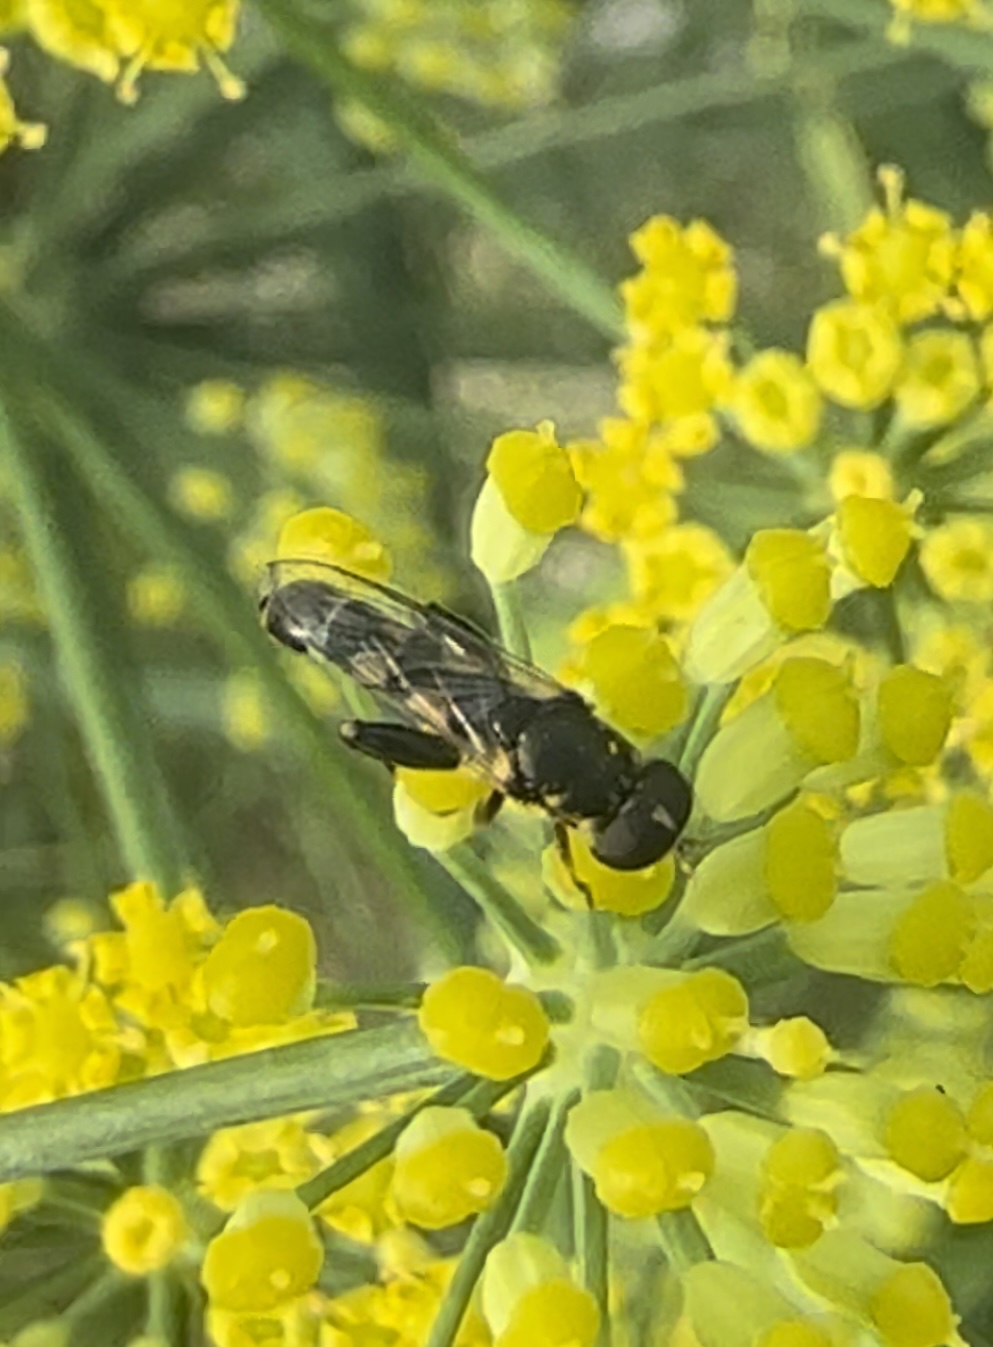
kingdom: Animalia
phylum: Arthropoda
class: Insecta
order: Diptera
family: Syrphidae
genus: Syritta
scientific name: Syritta pipiens
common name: Hover fly
